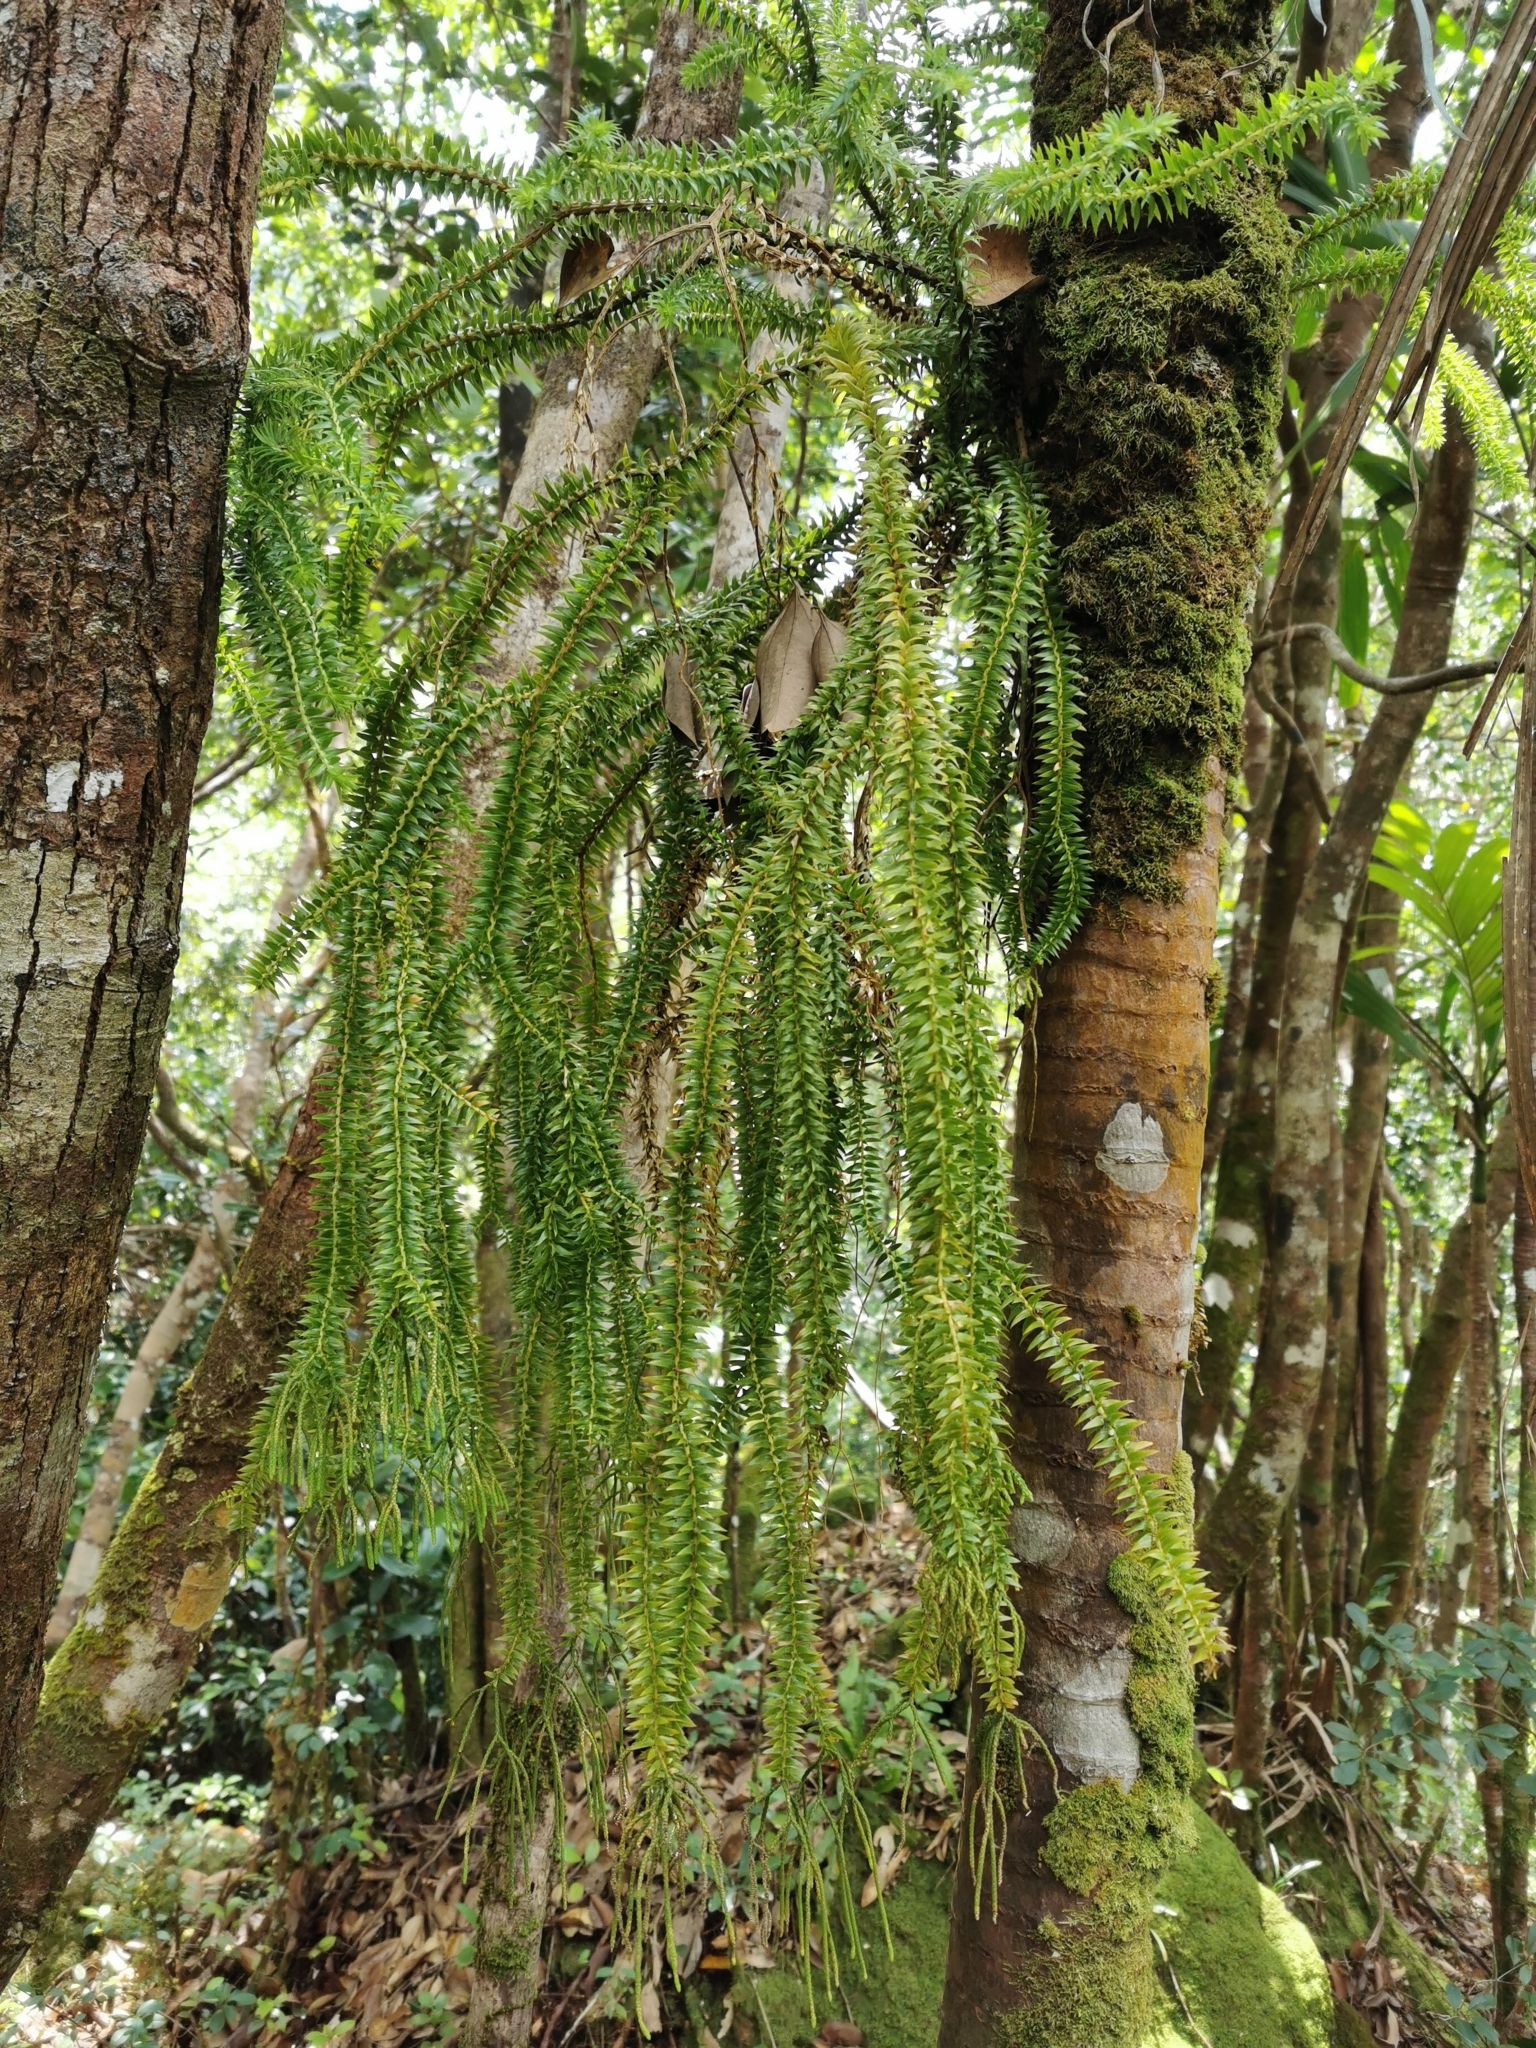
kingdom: Plantae
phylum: Tracheophyta
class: Lycopodiopsida
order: Lycopodiales
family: Lycopodiaceae
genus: Phlegmariurus
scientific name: Phlegmariurus phlegmaria
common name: Coarse tassel-fern
